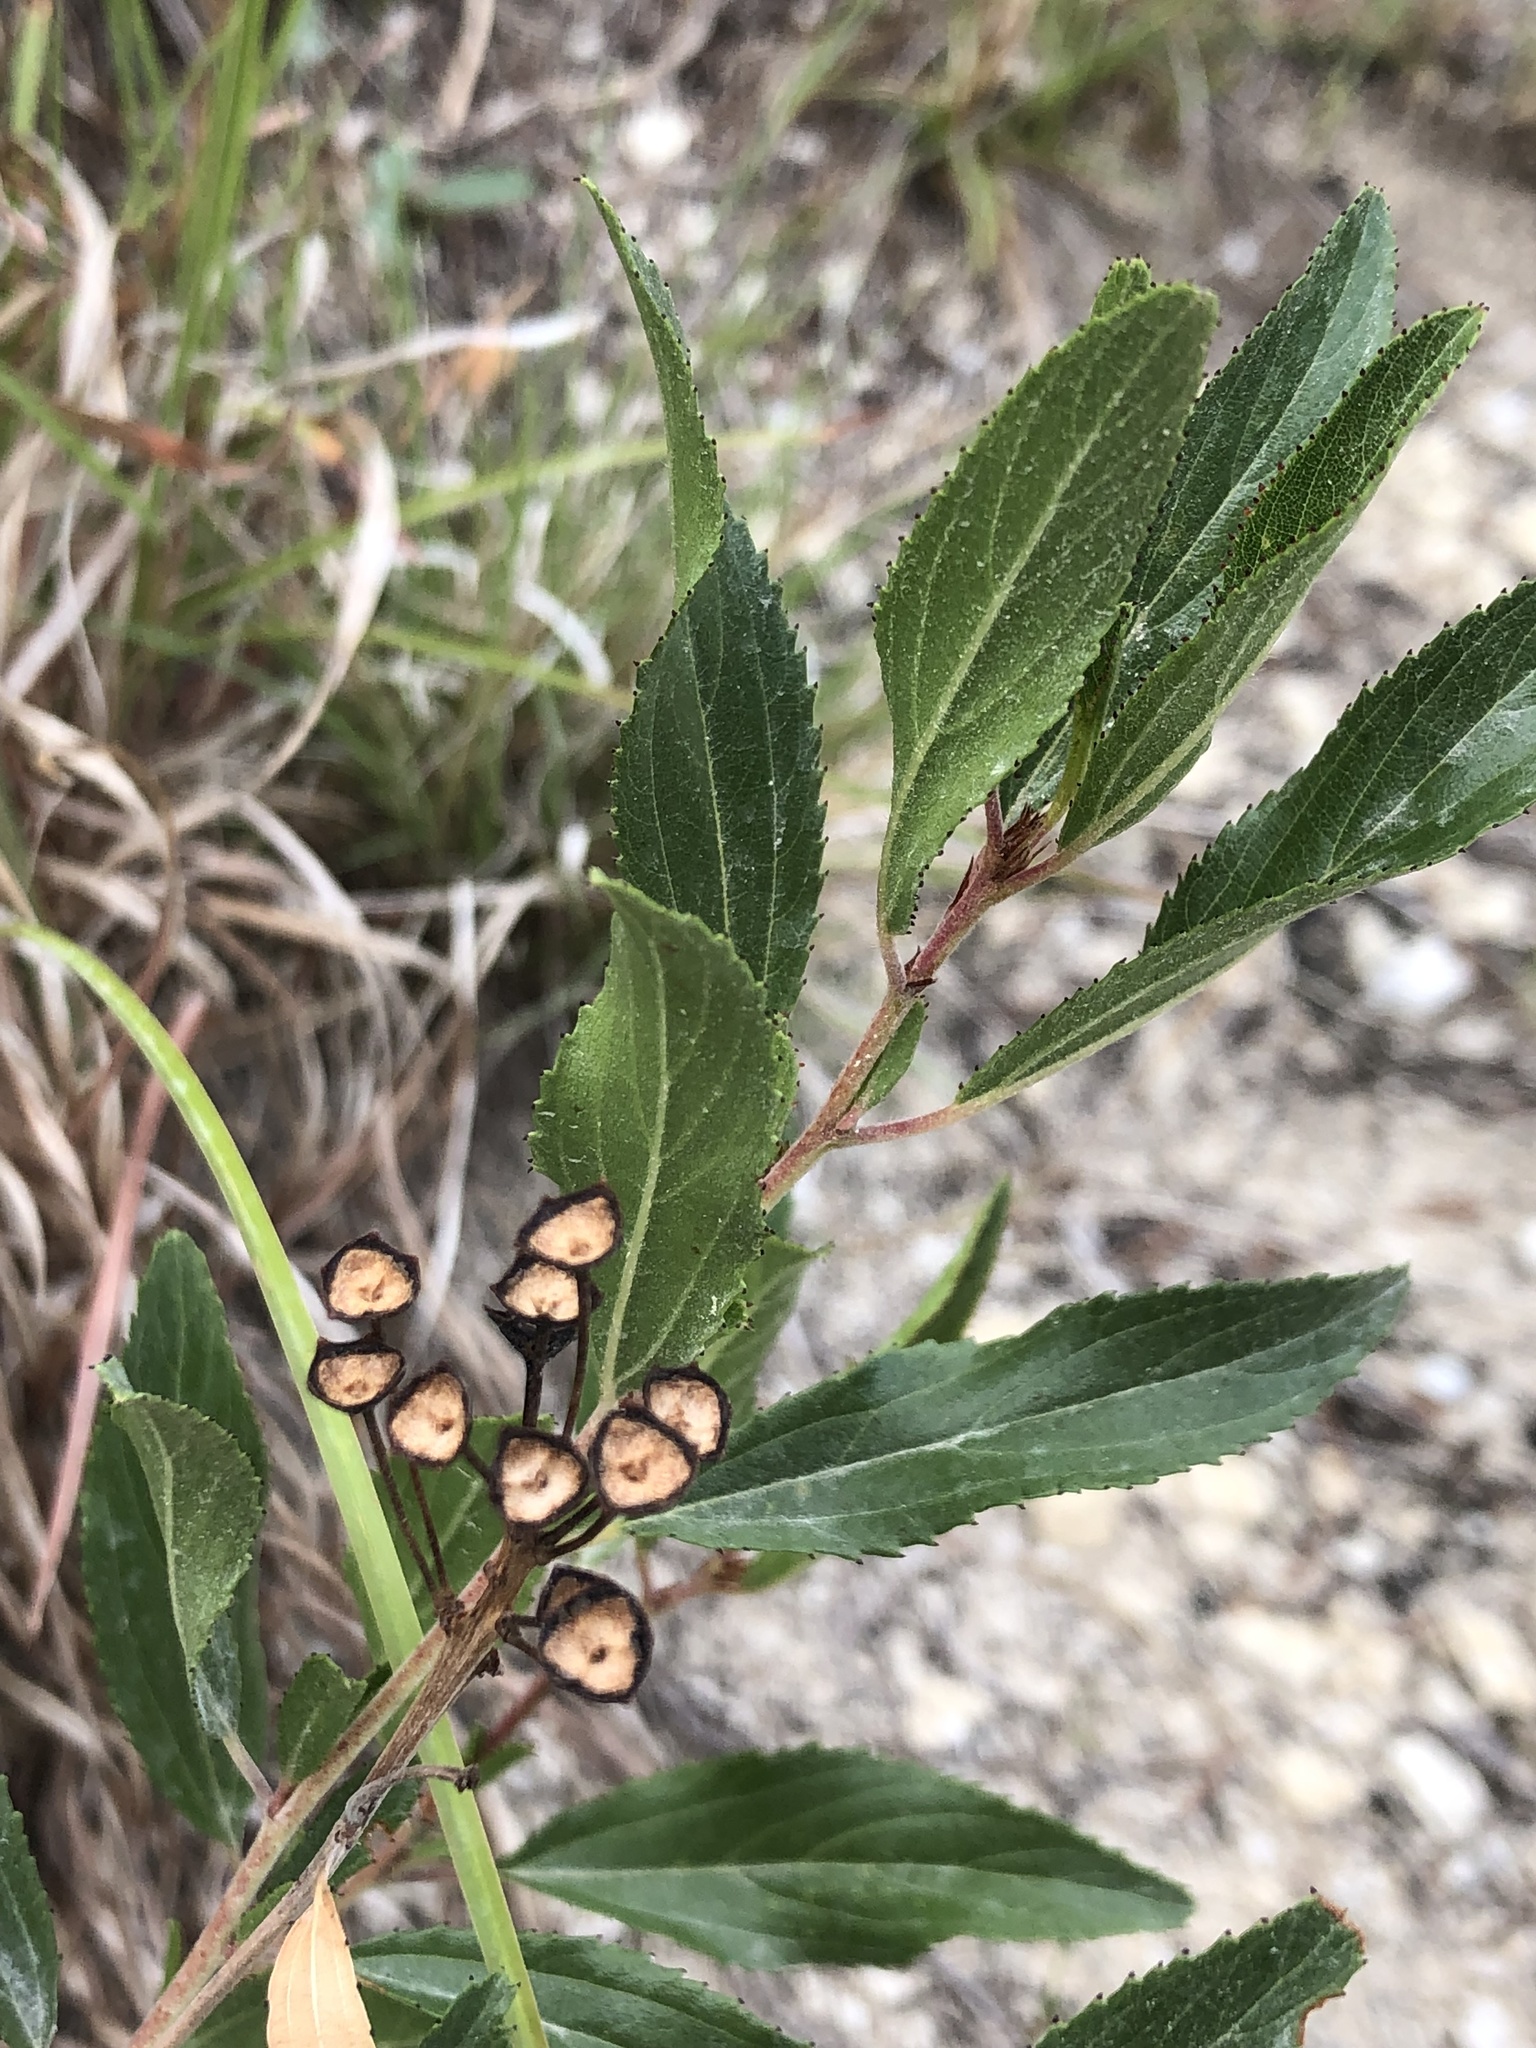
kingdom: Plantae
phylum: Tracheophyta
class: Magnoliopsida
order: Rosales
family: Rhamnaceae
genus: Ceanothus
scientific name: Ceanothus herbaceus
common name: Inland ceanothus
